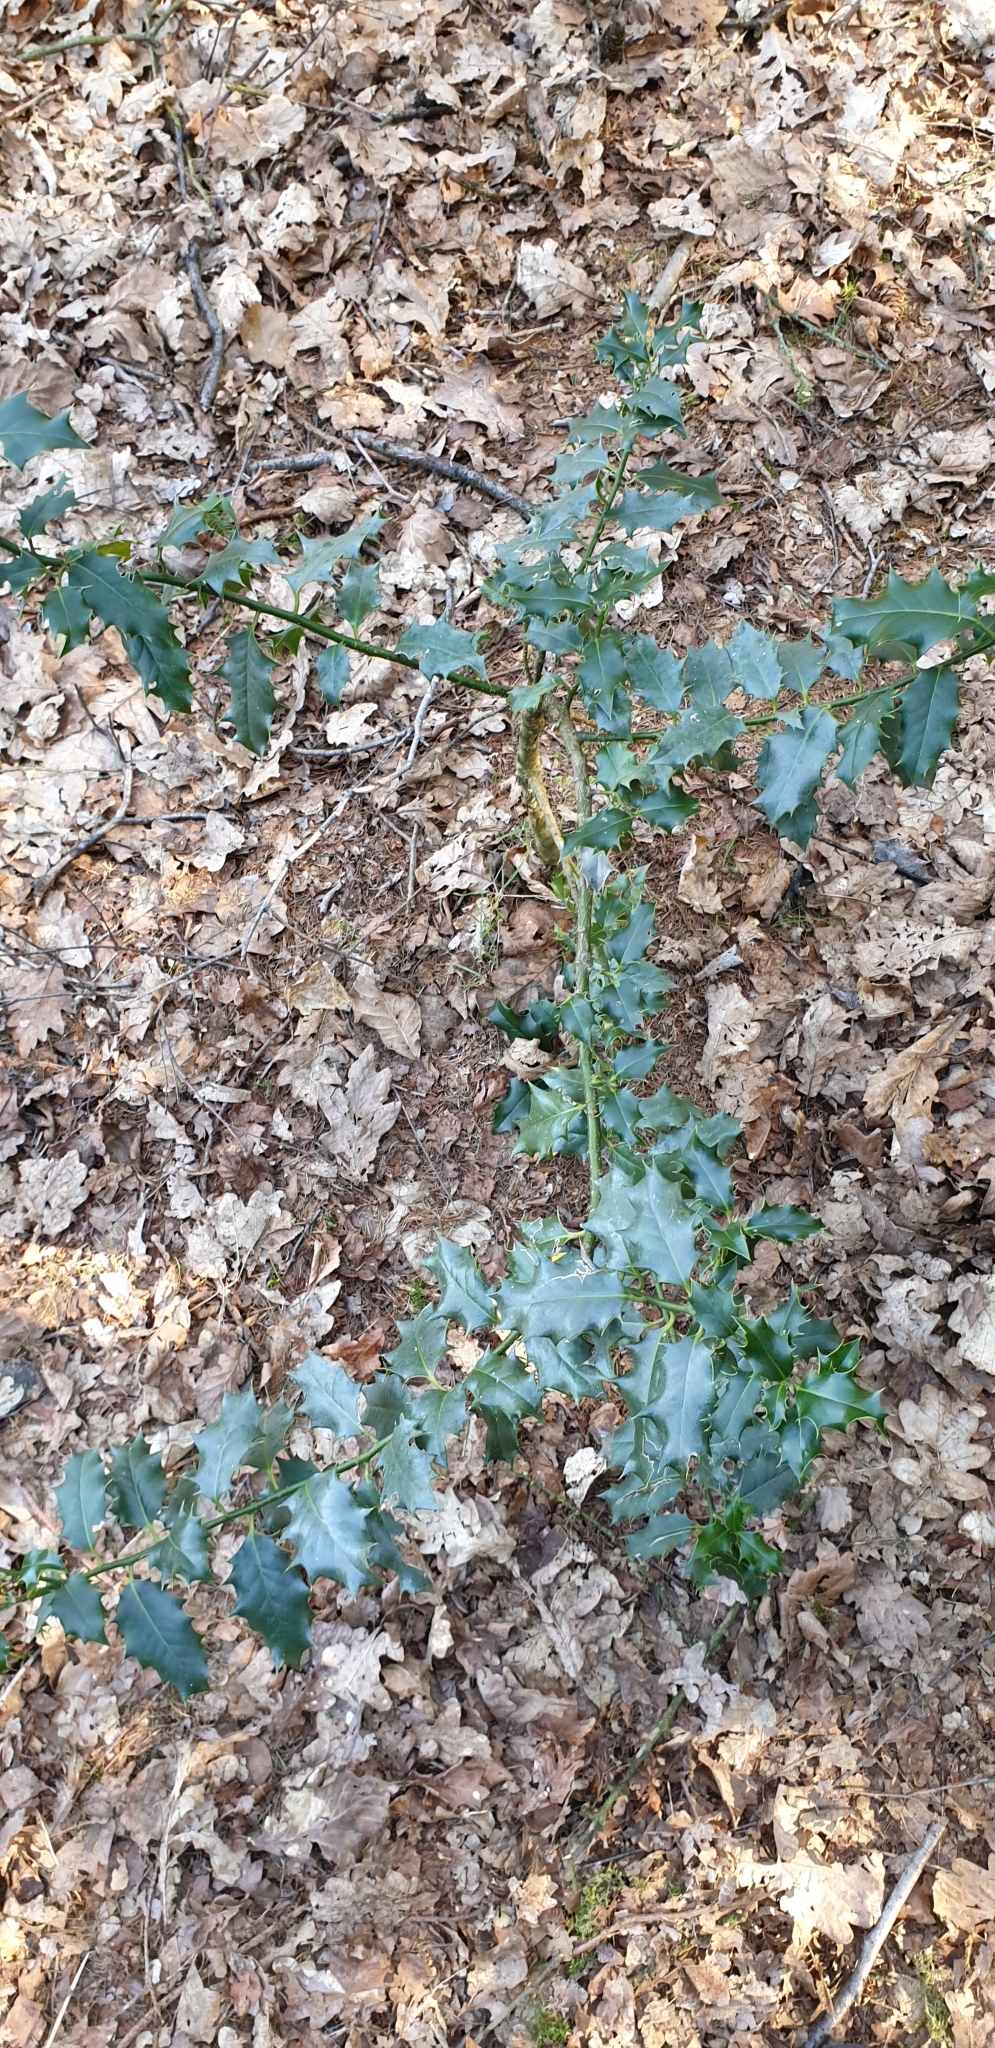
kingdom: Plantae
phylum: Tracheophyta
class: Magnoliopsida
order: Aquifoliales
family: Aquifoliaceae
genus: Ilex
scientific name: Ilex aquifolium
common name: English holly
